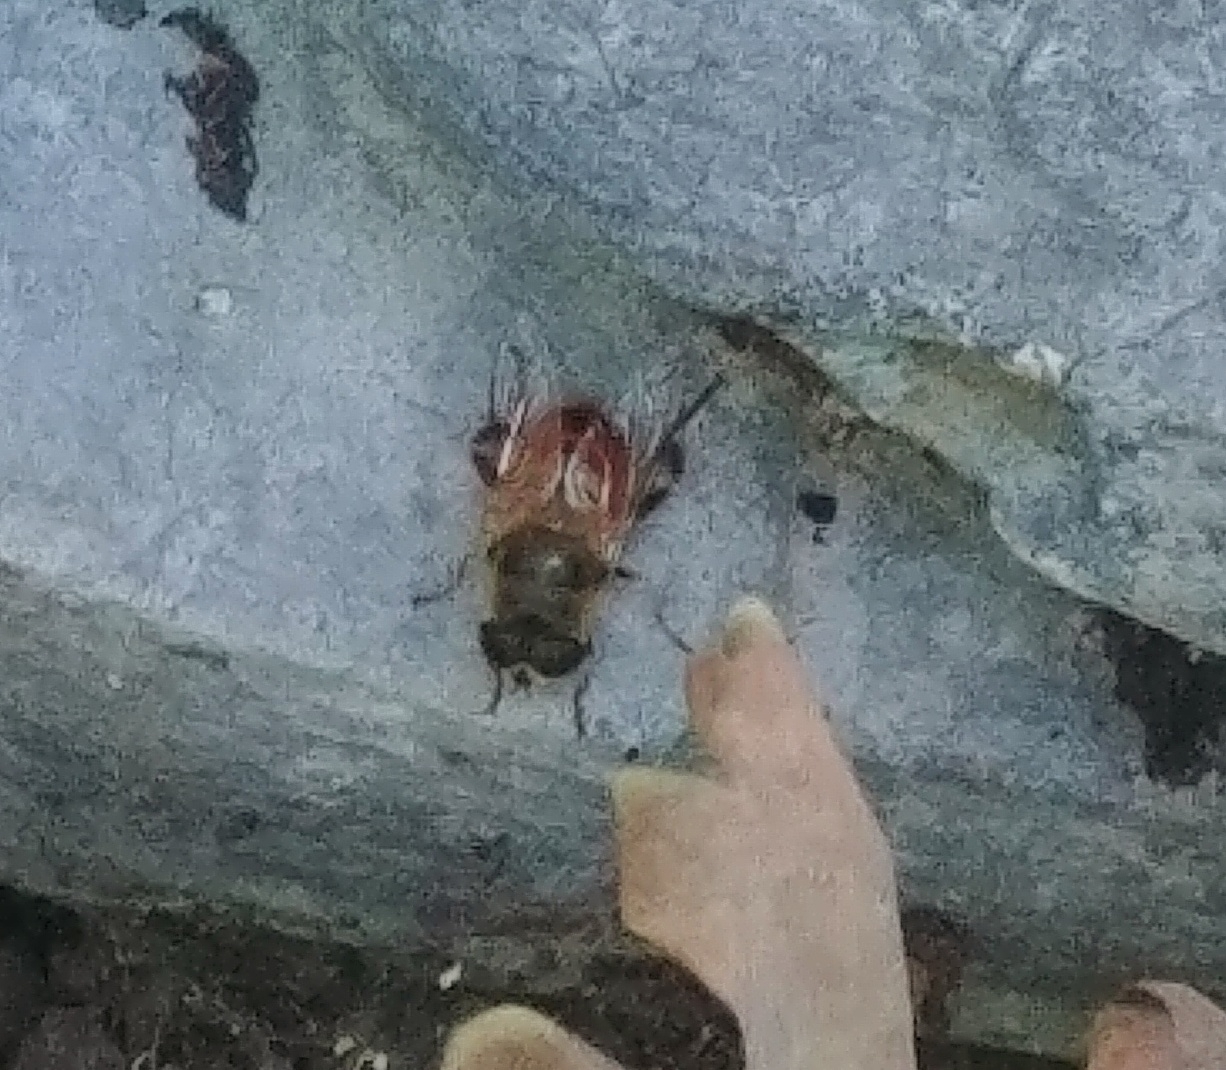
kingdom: Animalia
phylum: Arthropoda
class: Insecta
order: Diptera
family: Syrphidae
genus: Eristalis
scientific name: Eristalis tenax
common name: Drone fly
